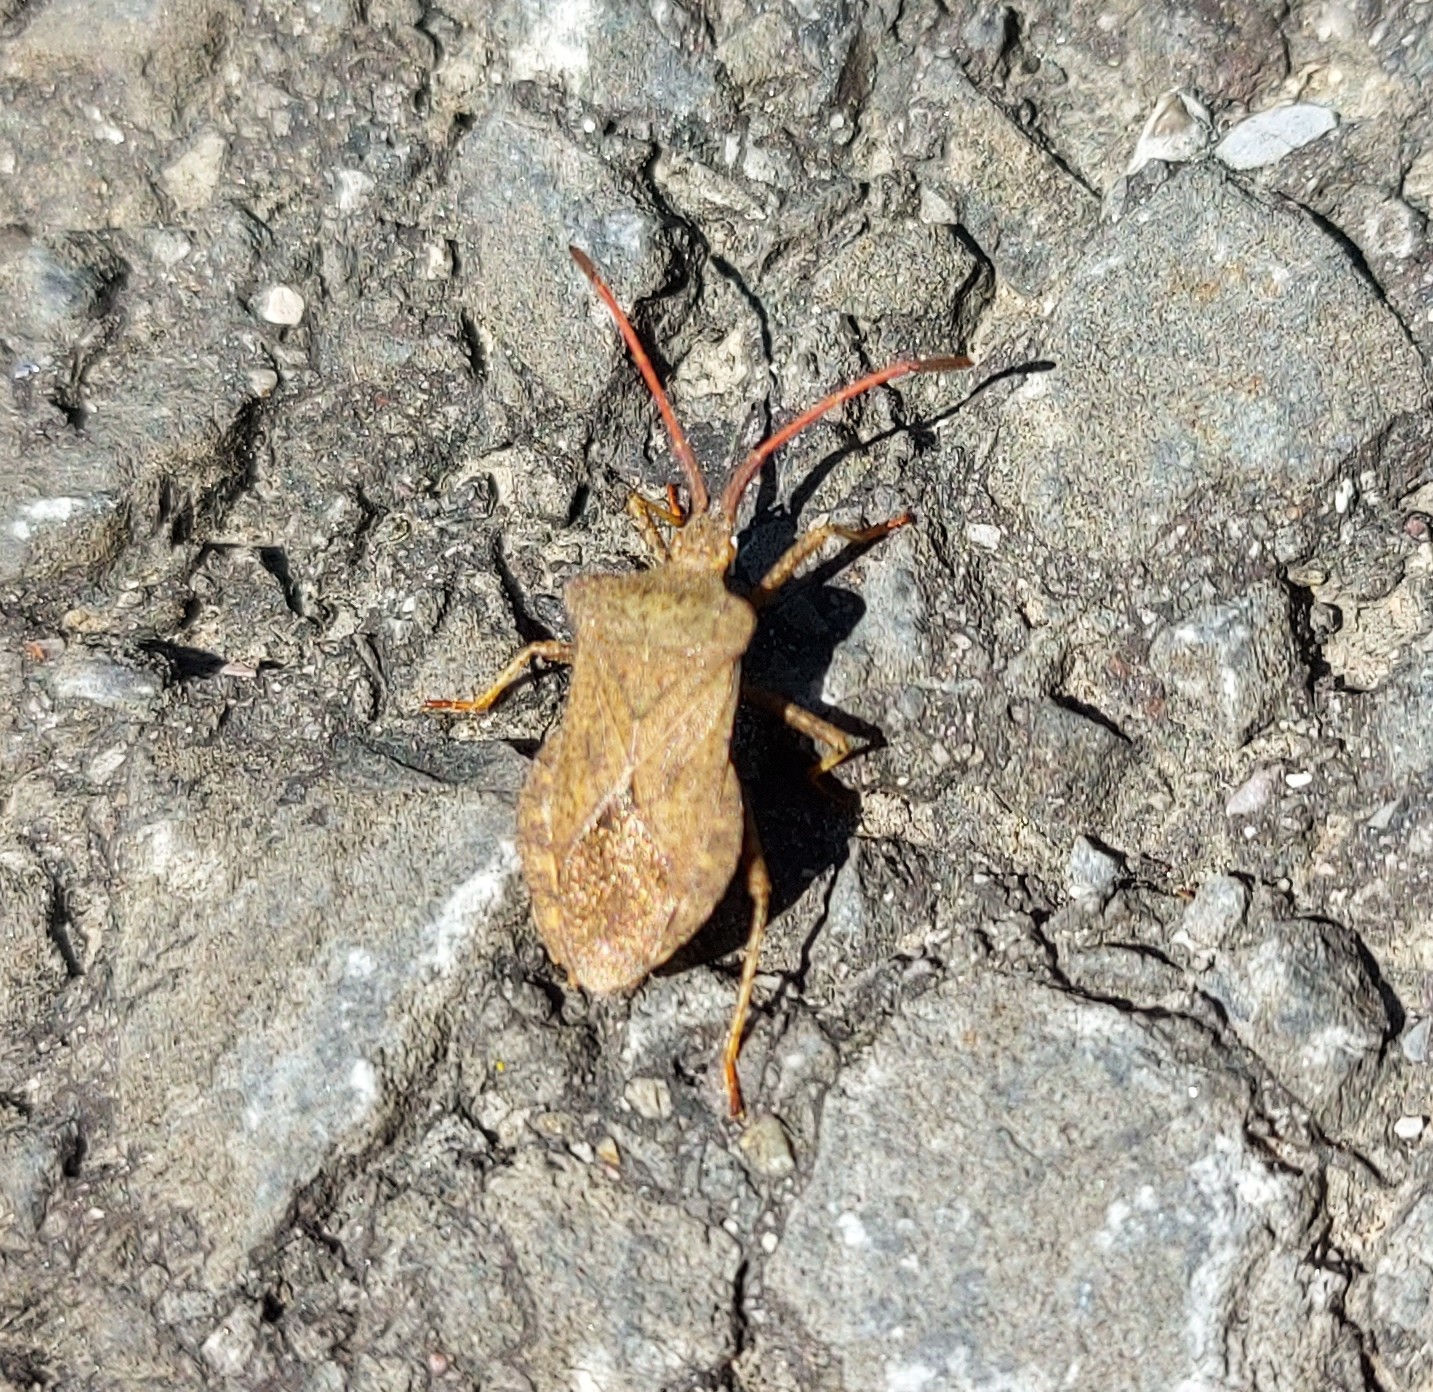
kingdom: Animalia
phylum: Arthropoda
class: Insecta
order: Hemiptera
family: Coreidae
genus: Coreus
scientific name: Coreus marginatus
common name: Dock bug
